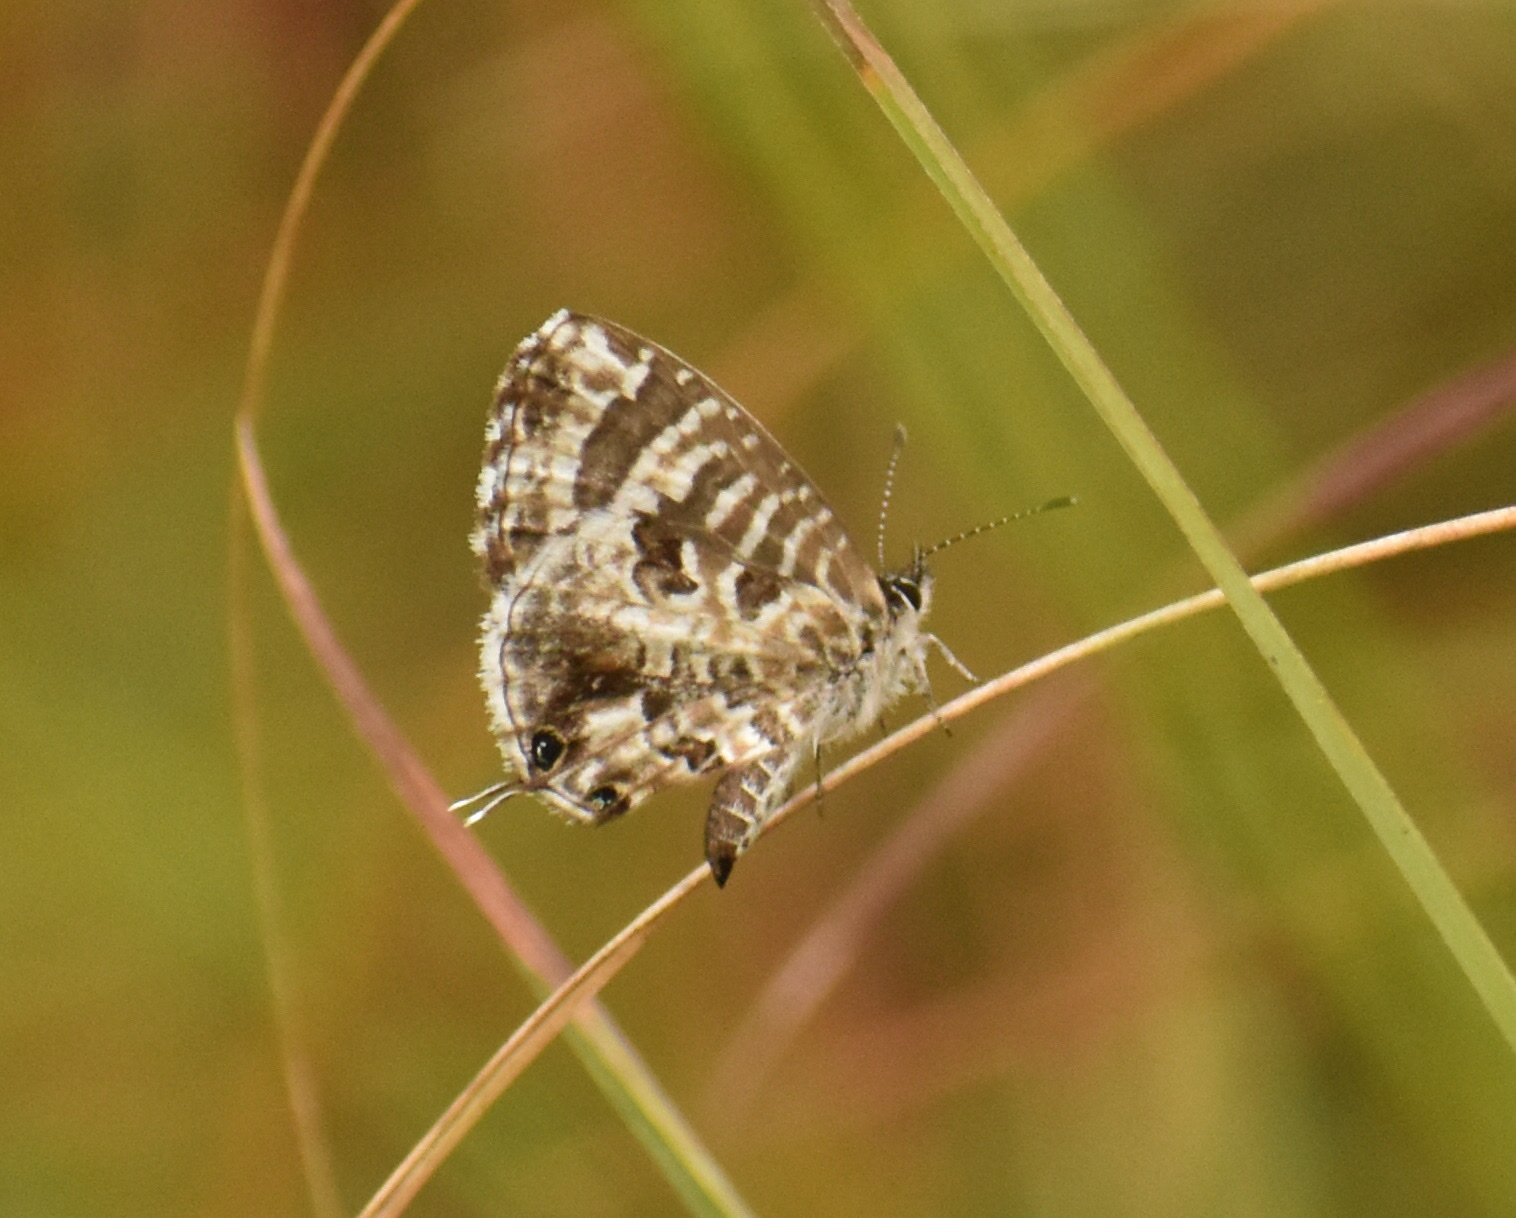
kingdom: Animalia
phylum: Arthropoda
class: Insecta
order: Lepidoptera
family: Lycaenidae
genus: Cacyreus
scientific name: Cacyreus lingeus
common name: Bush bronze
